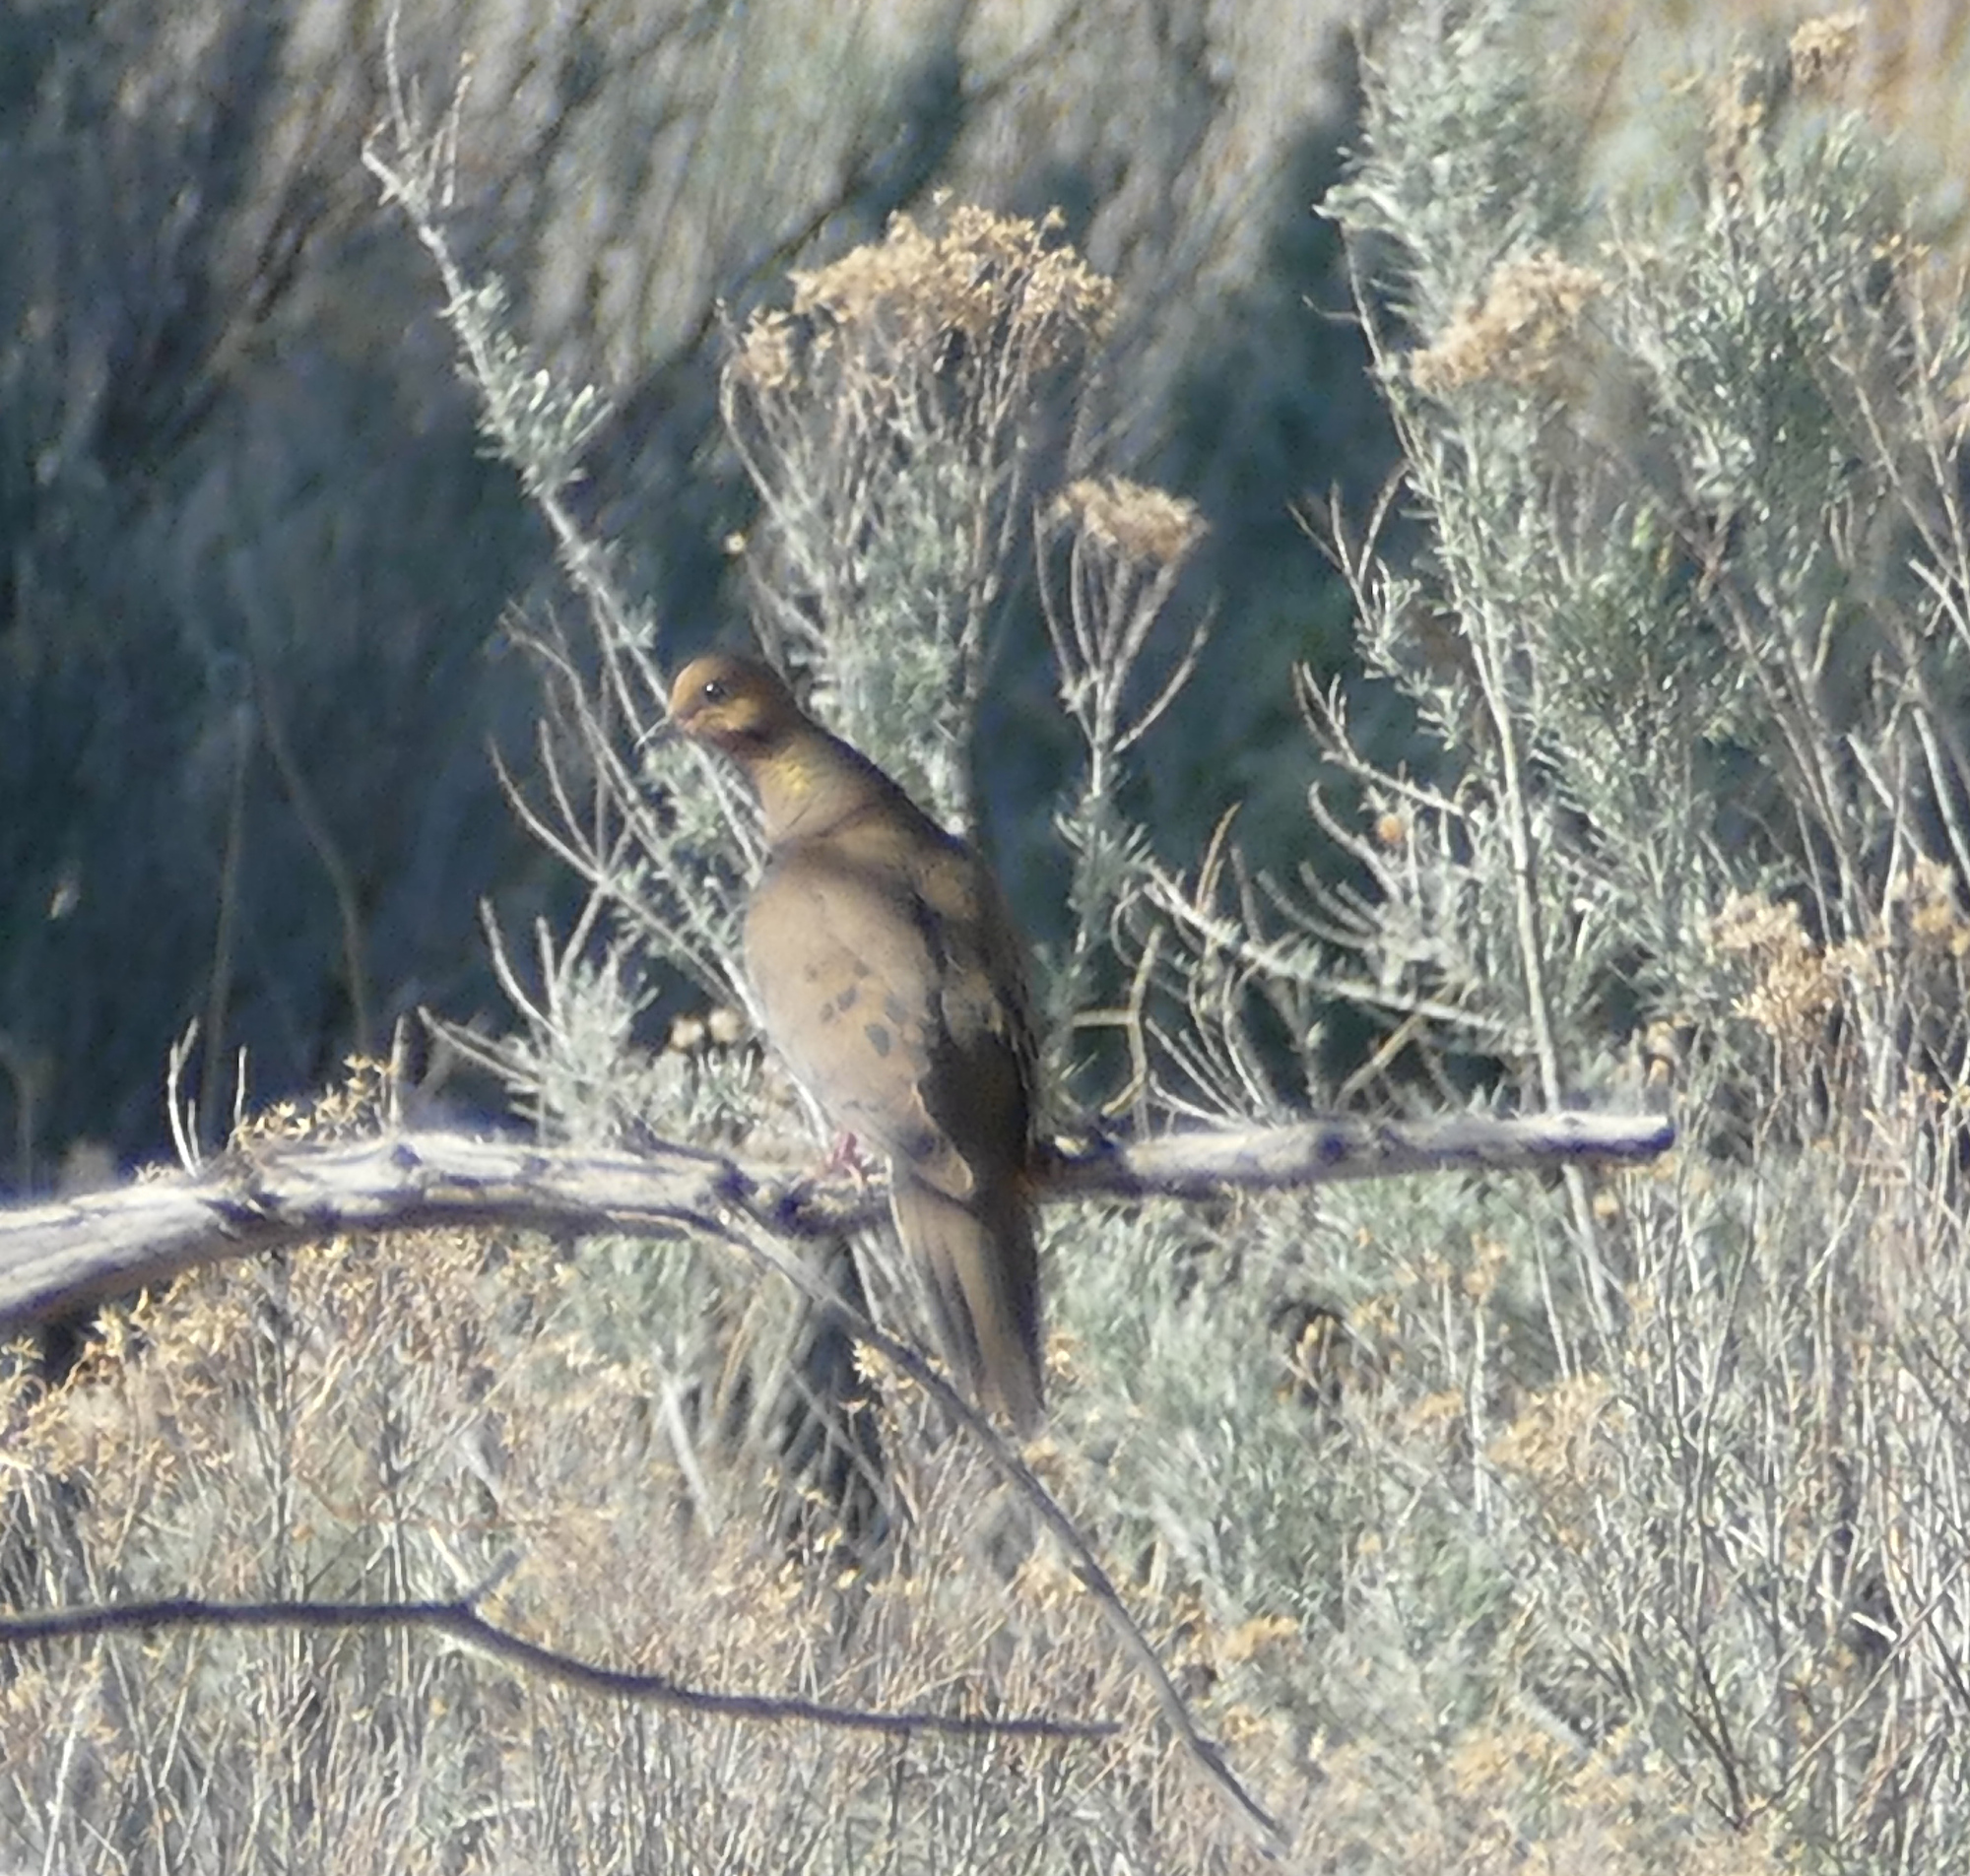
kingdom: Animalia
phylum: Chordata
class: Aves
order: Columbiformes
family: Columbidae
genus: Zenaida
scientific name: Zenaida macroura
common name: Mourning dove
